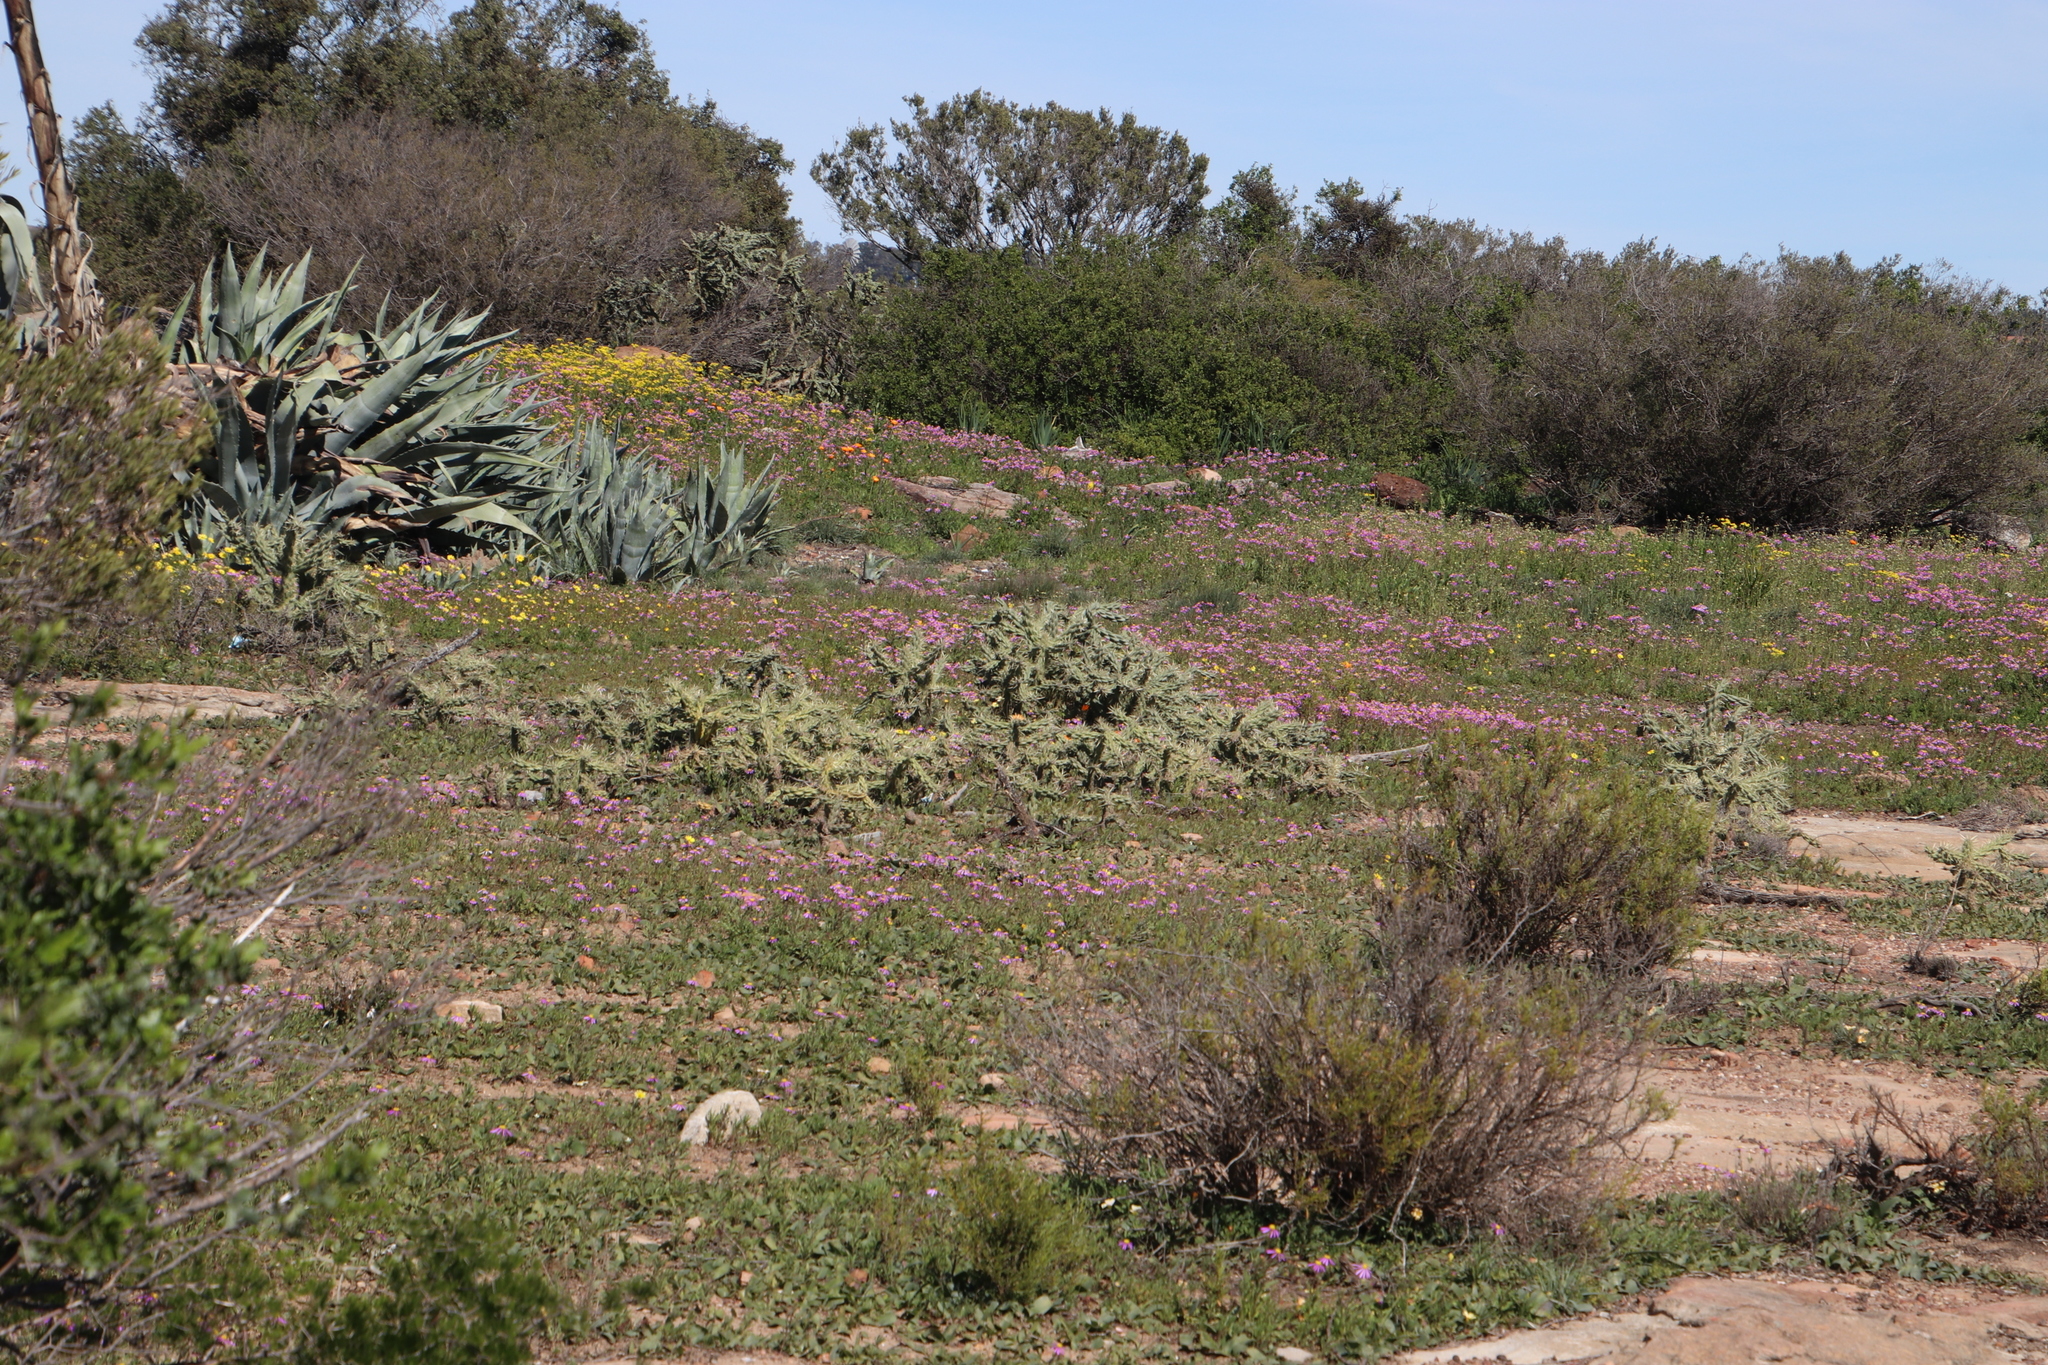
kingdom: Plantae
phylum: Tracheophyta
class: Magnoliopsida
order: Caryophyllales
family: Cactaceae
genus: Cylindropuntia
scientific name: Cylindropuntia imbricata
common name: Candelabrum cactus
